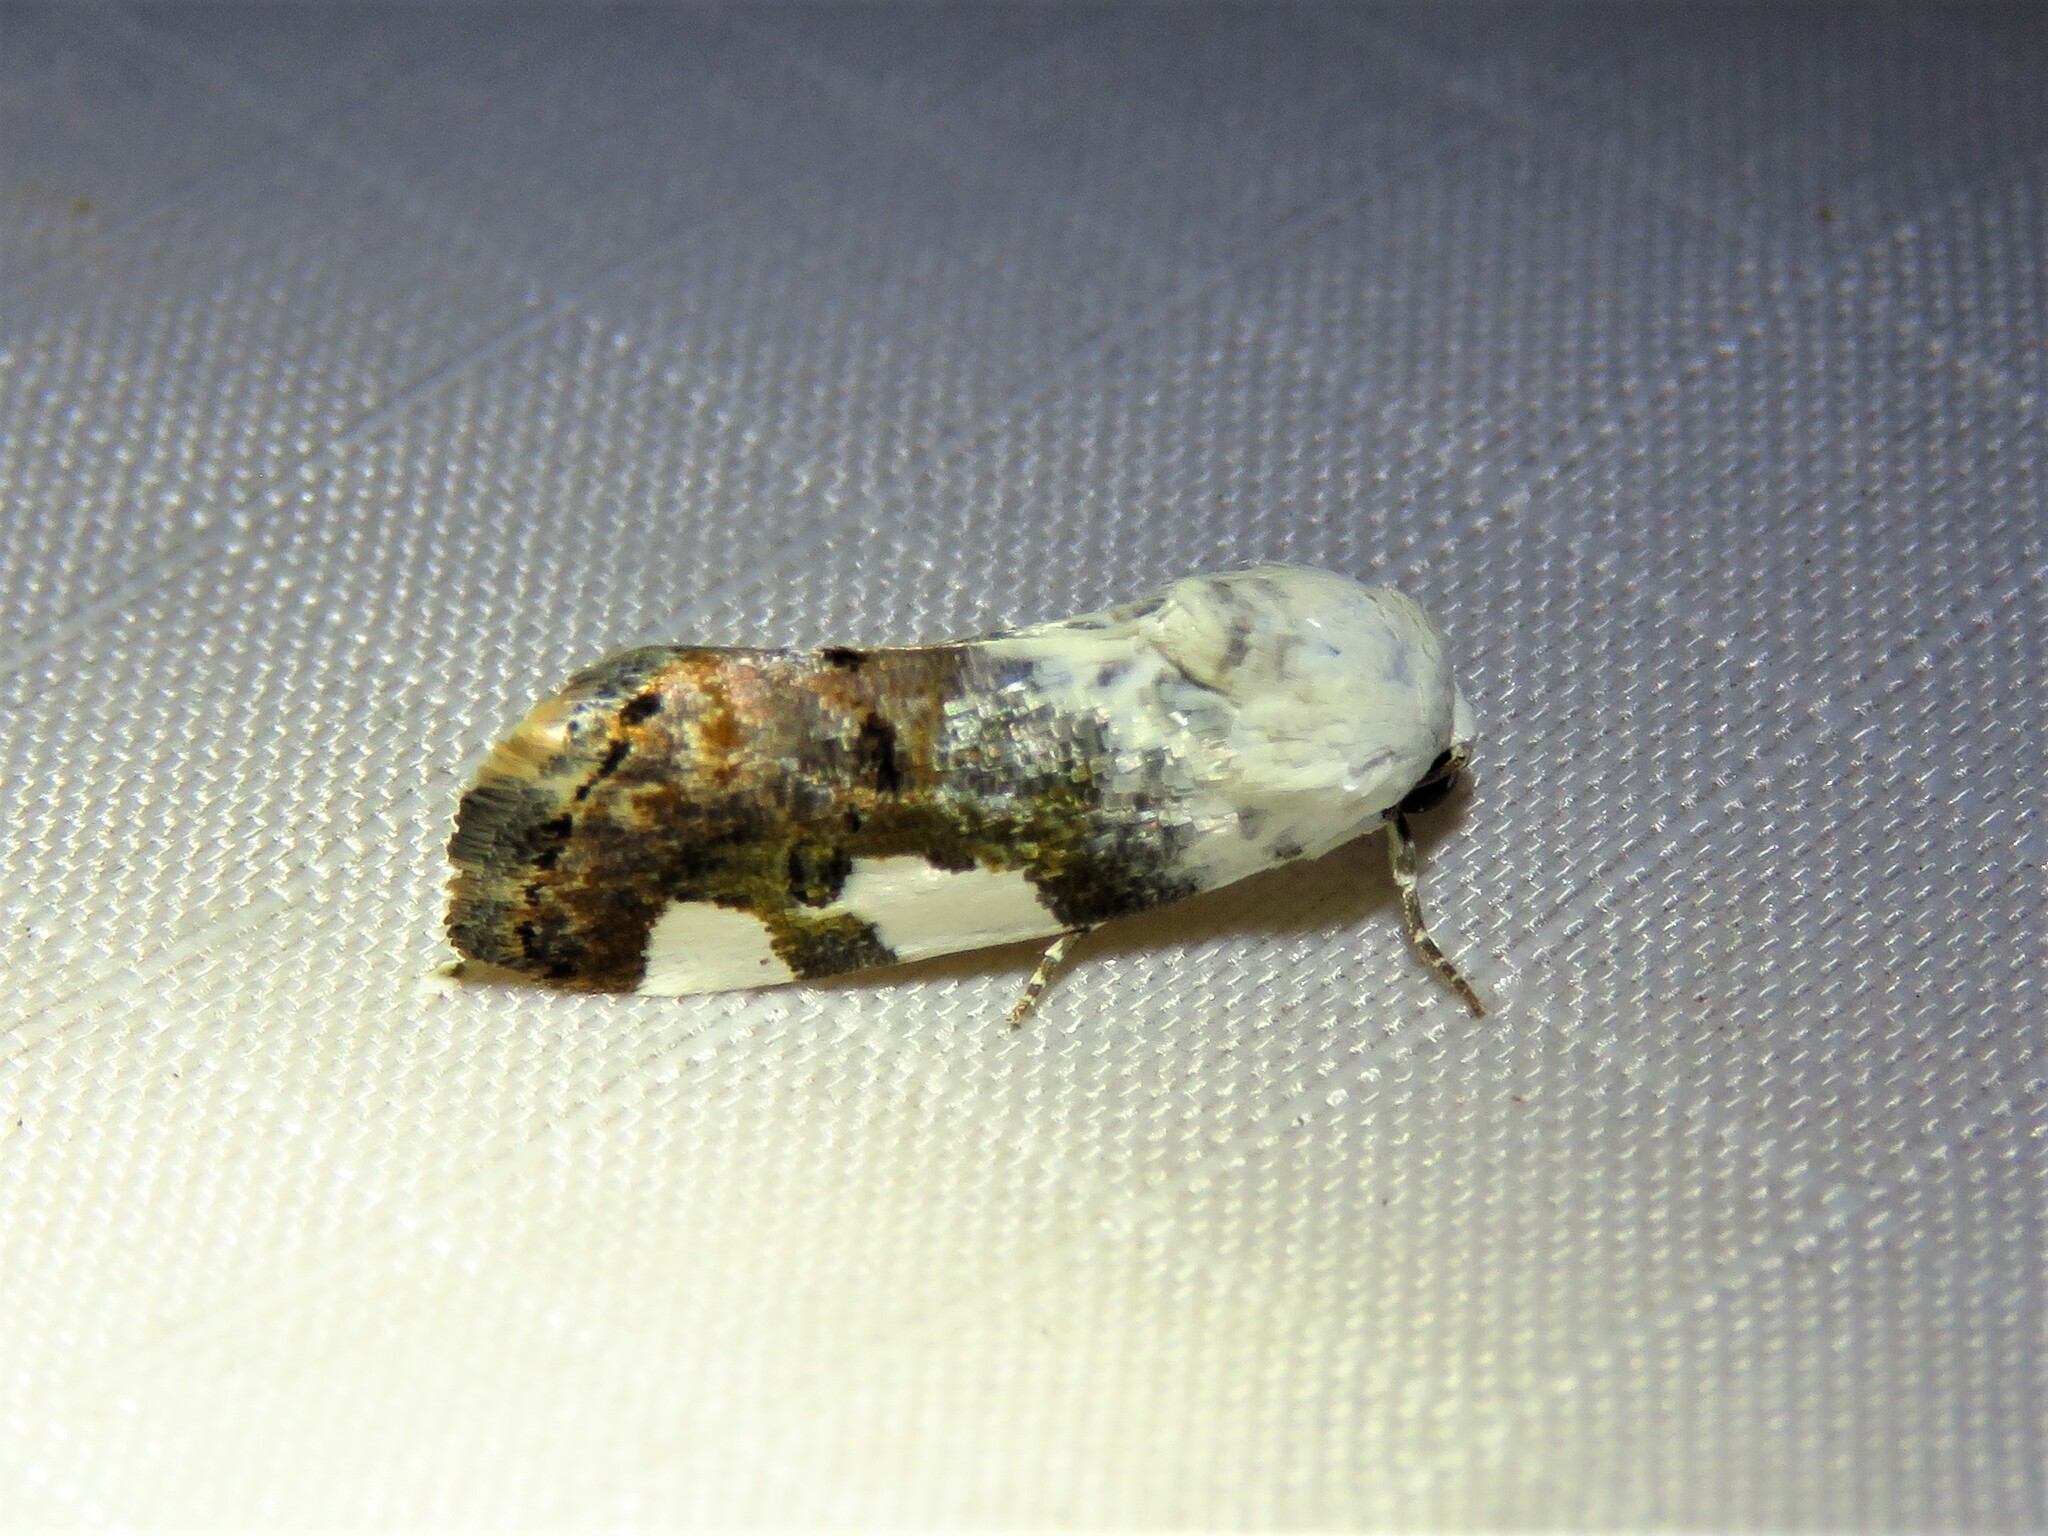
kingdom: Animalia
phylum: Arthropoda
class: Insecta
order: Lepidoptera
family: Noctuidae
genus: Acontia
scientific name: Acontia quadriplaga
